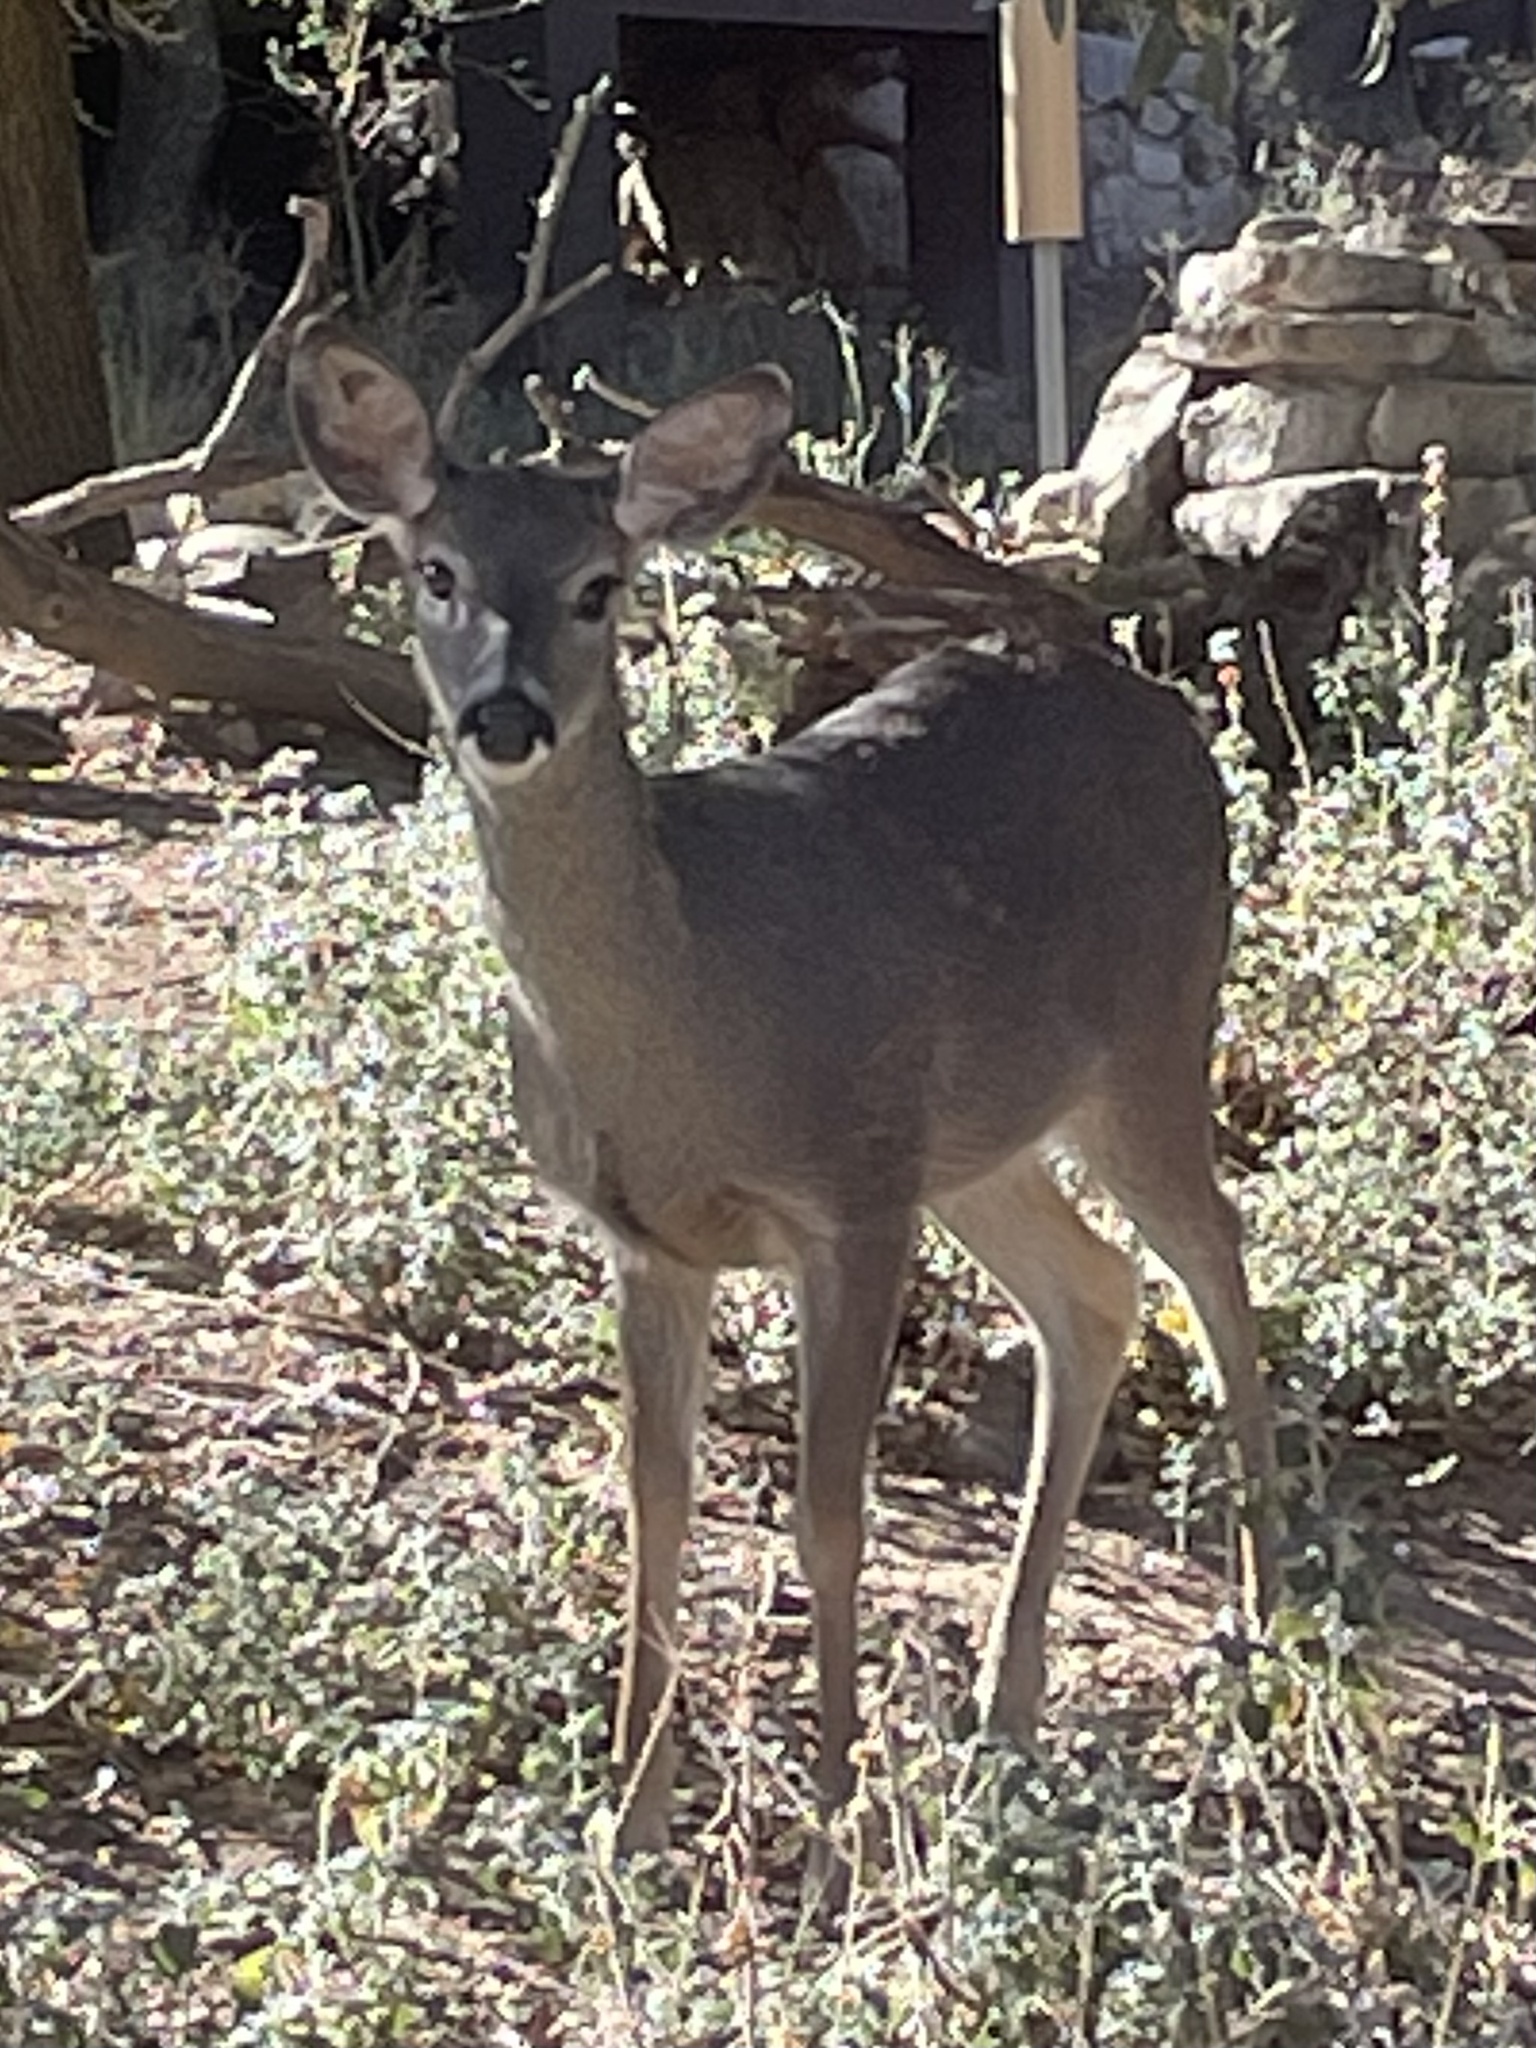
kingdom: Animalia
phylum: Chordata
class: Mammalia
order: Artiodactyla
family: Cervidae
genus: Odocoileus
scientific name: Odocoileus virginianus
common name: White-tailed deer
